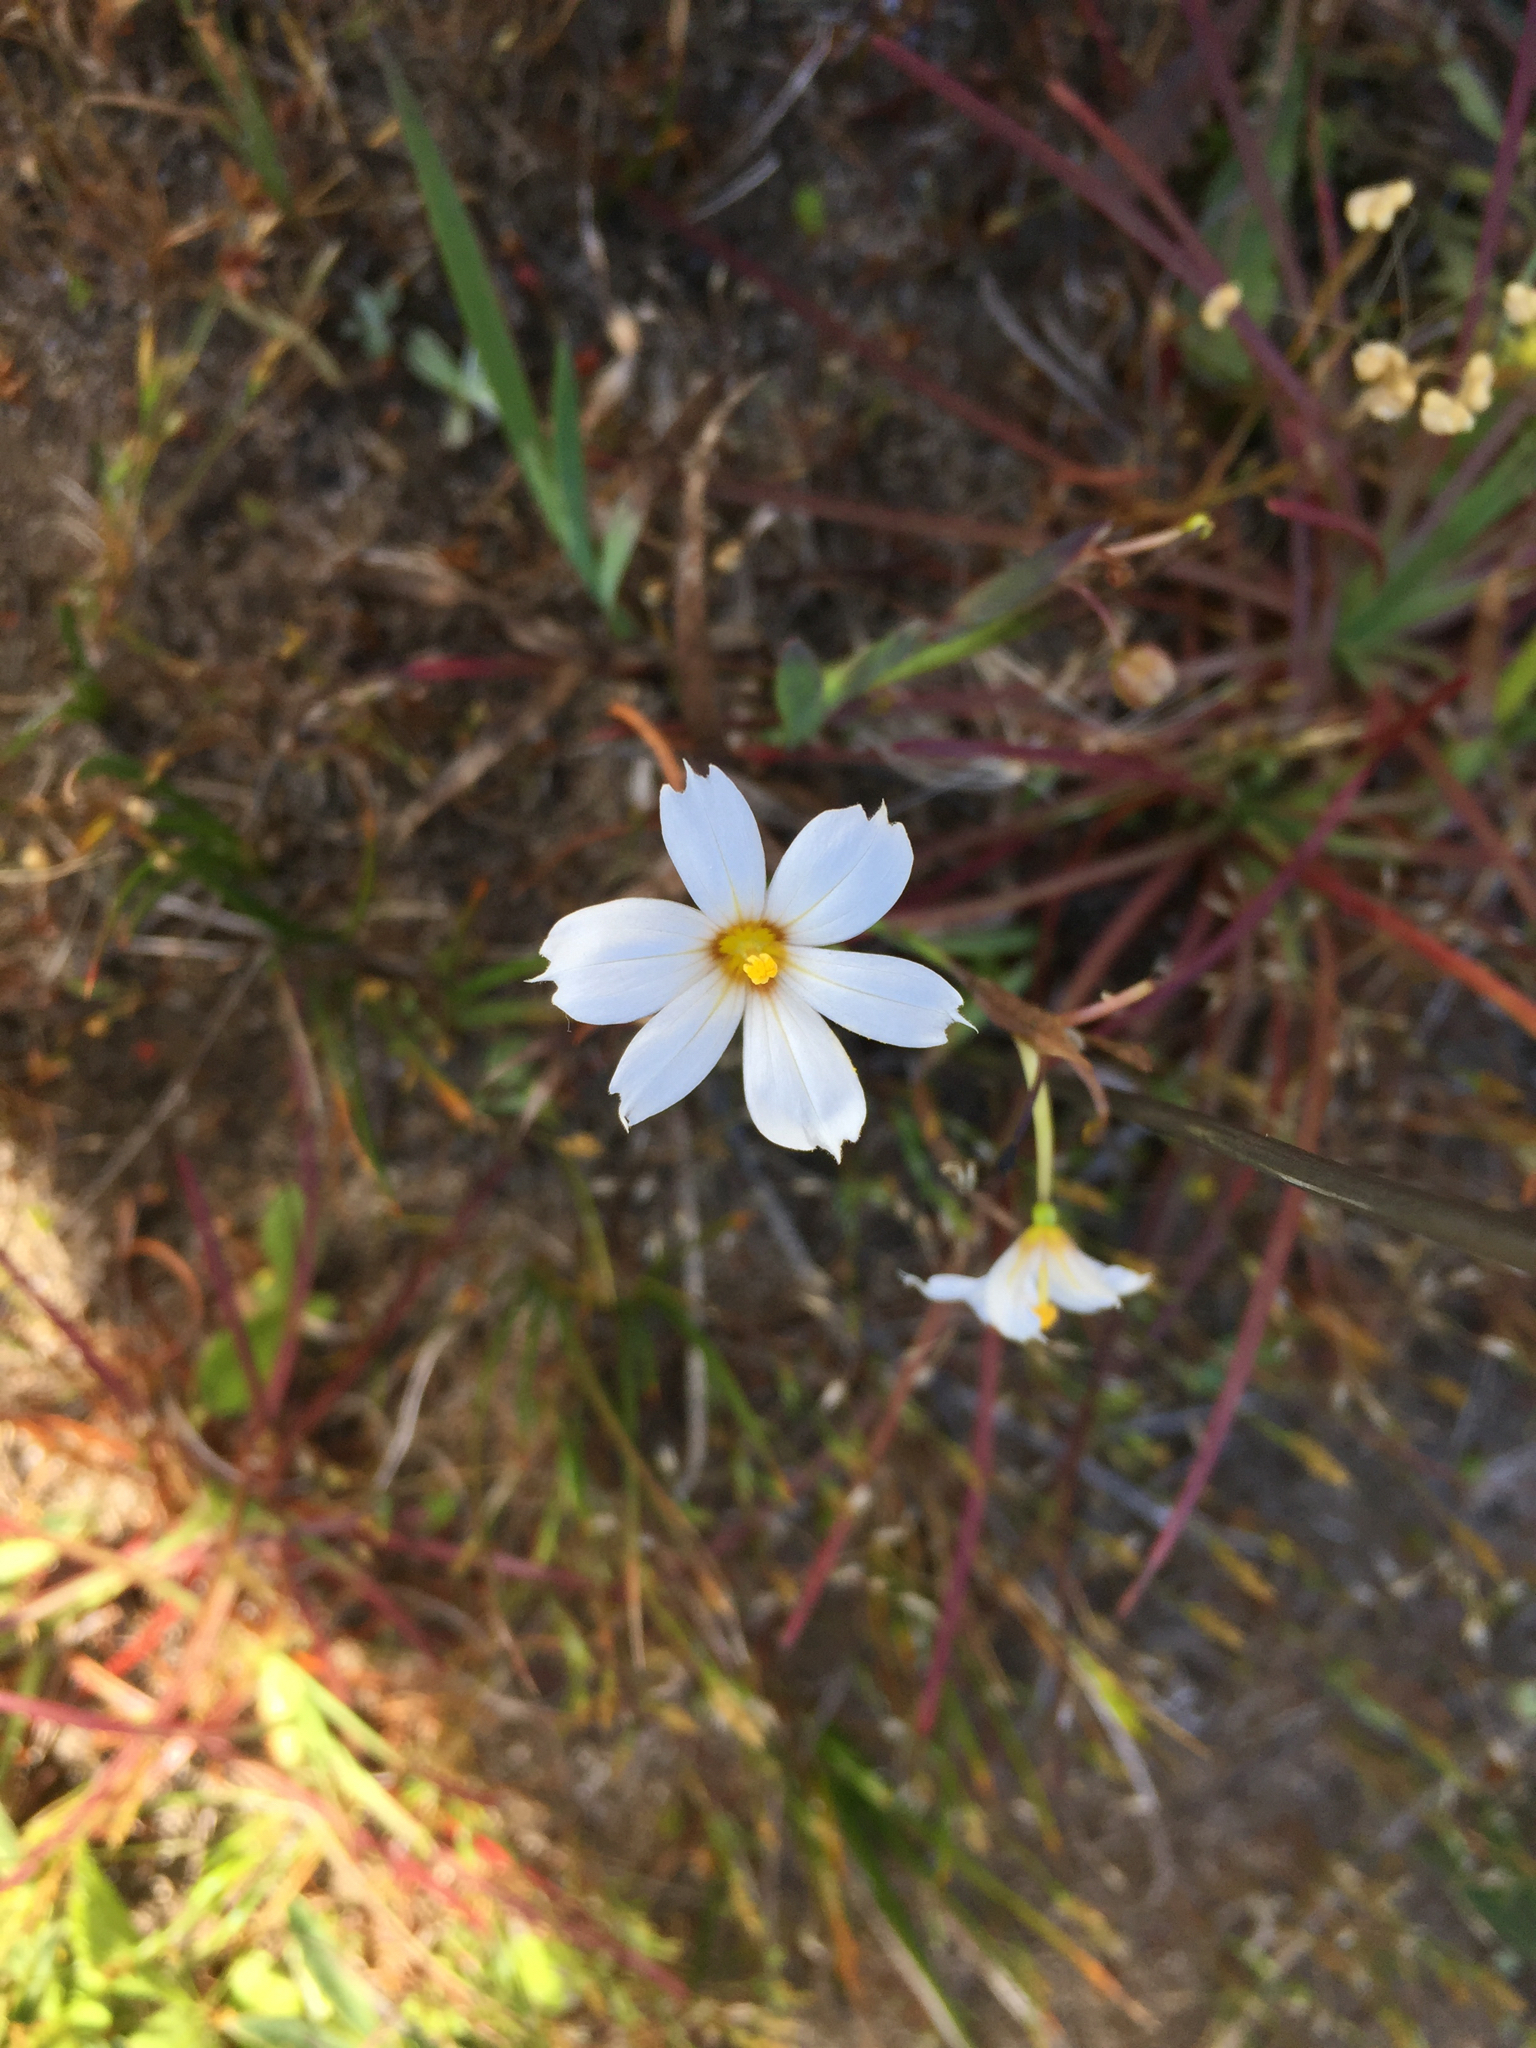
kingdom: Plantae
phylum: Tracheophyta
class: Liliopsida
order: Asparagales
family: Iridaceae
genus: Sisyrinchium
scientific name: Sisyrinchium bellum
